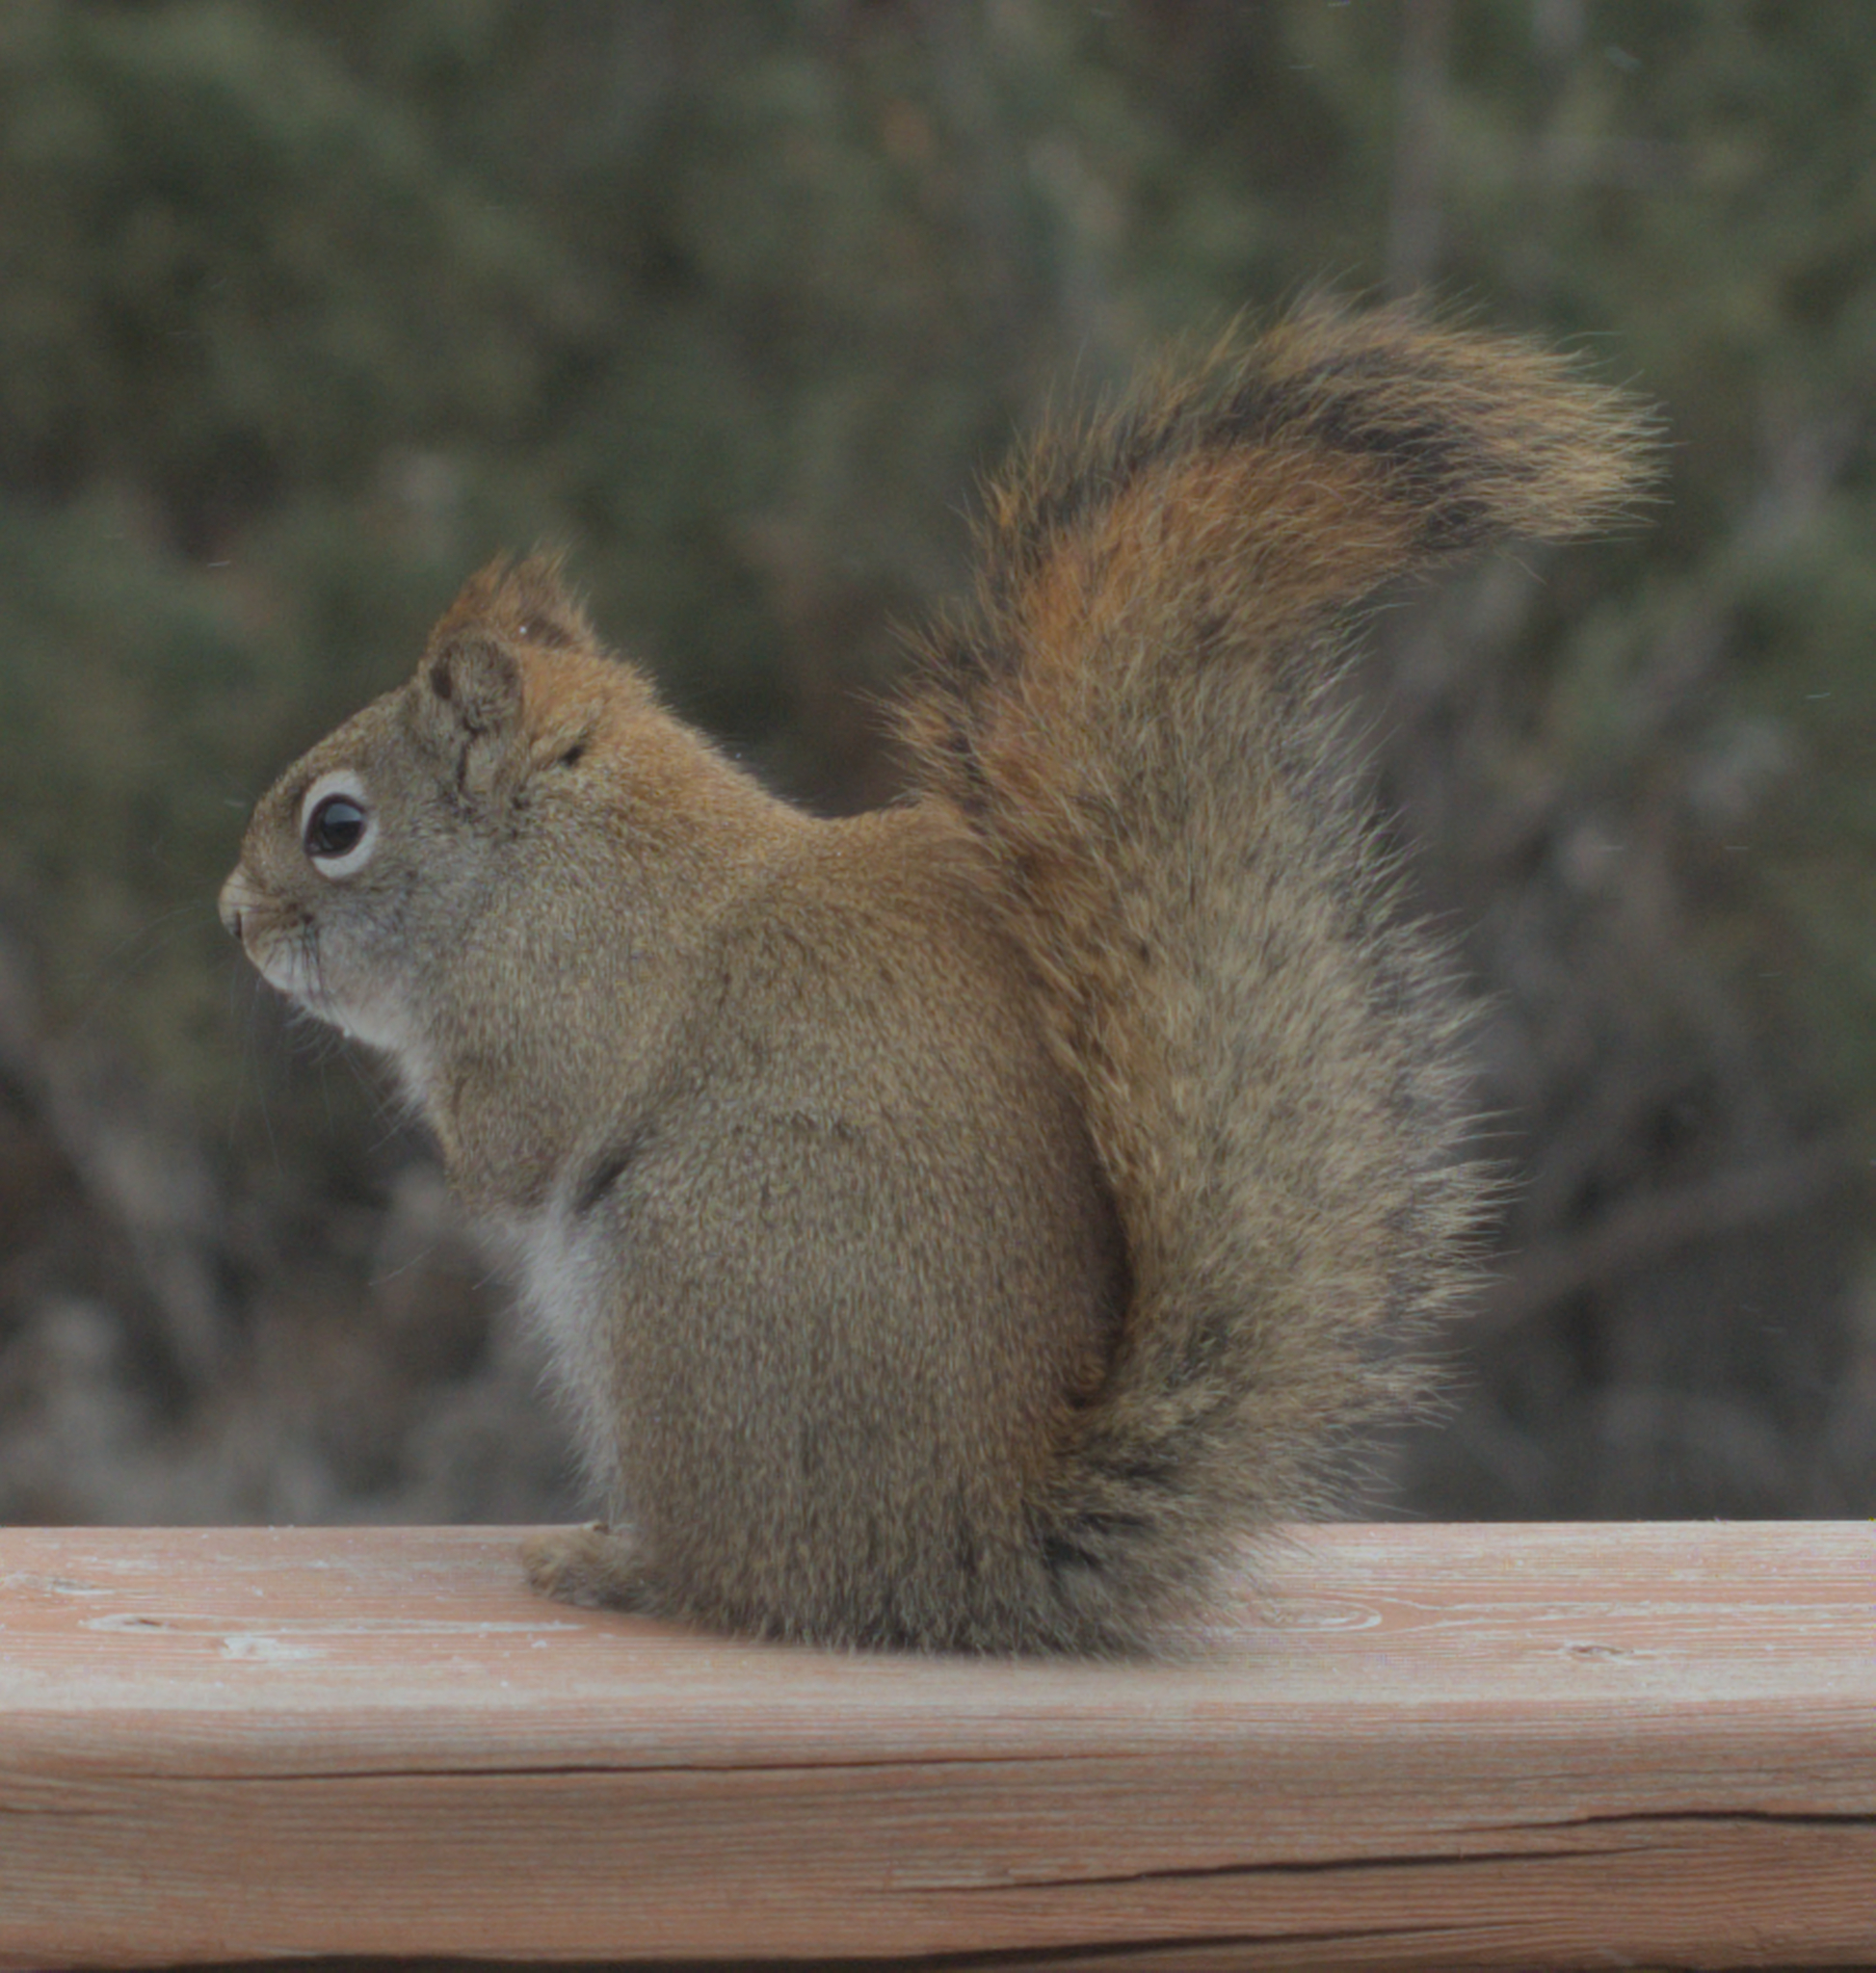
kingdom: Animalia
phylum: Chordata
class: Mammalia
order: Rodentia
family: Sciuridae
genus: Tamiasciurus
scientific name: Tamiasciurus hudsonicus
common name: Red squirrel
